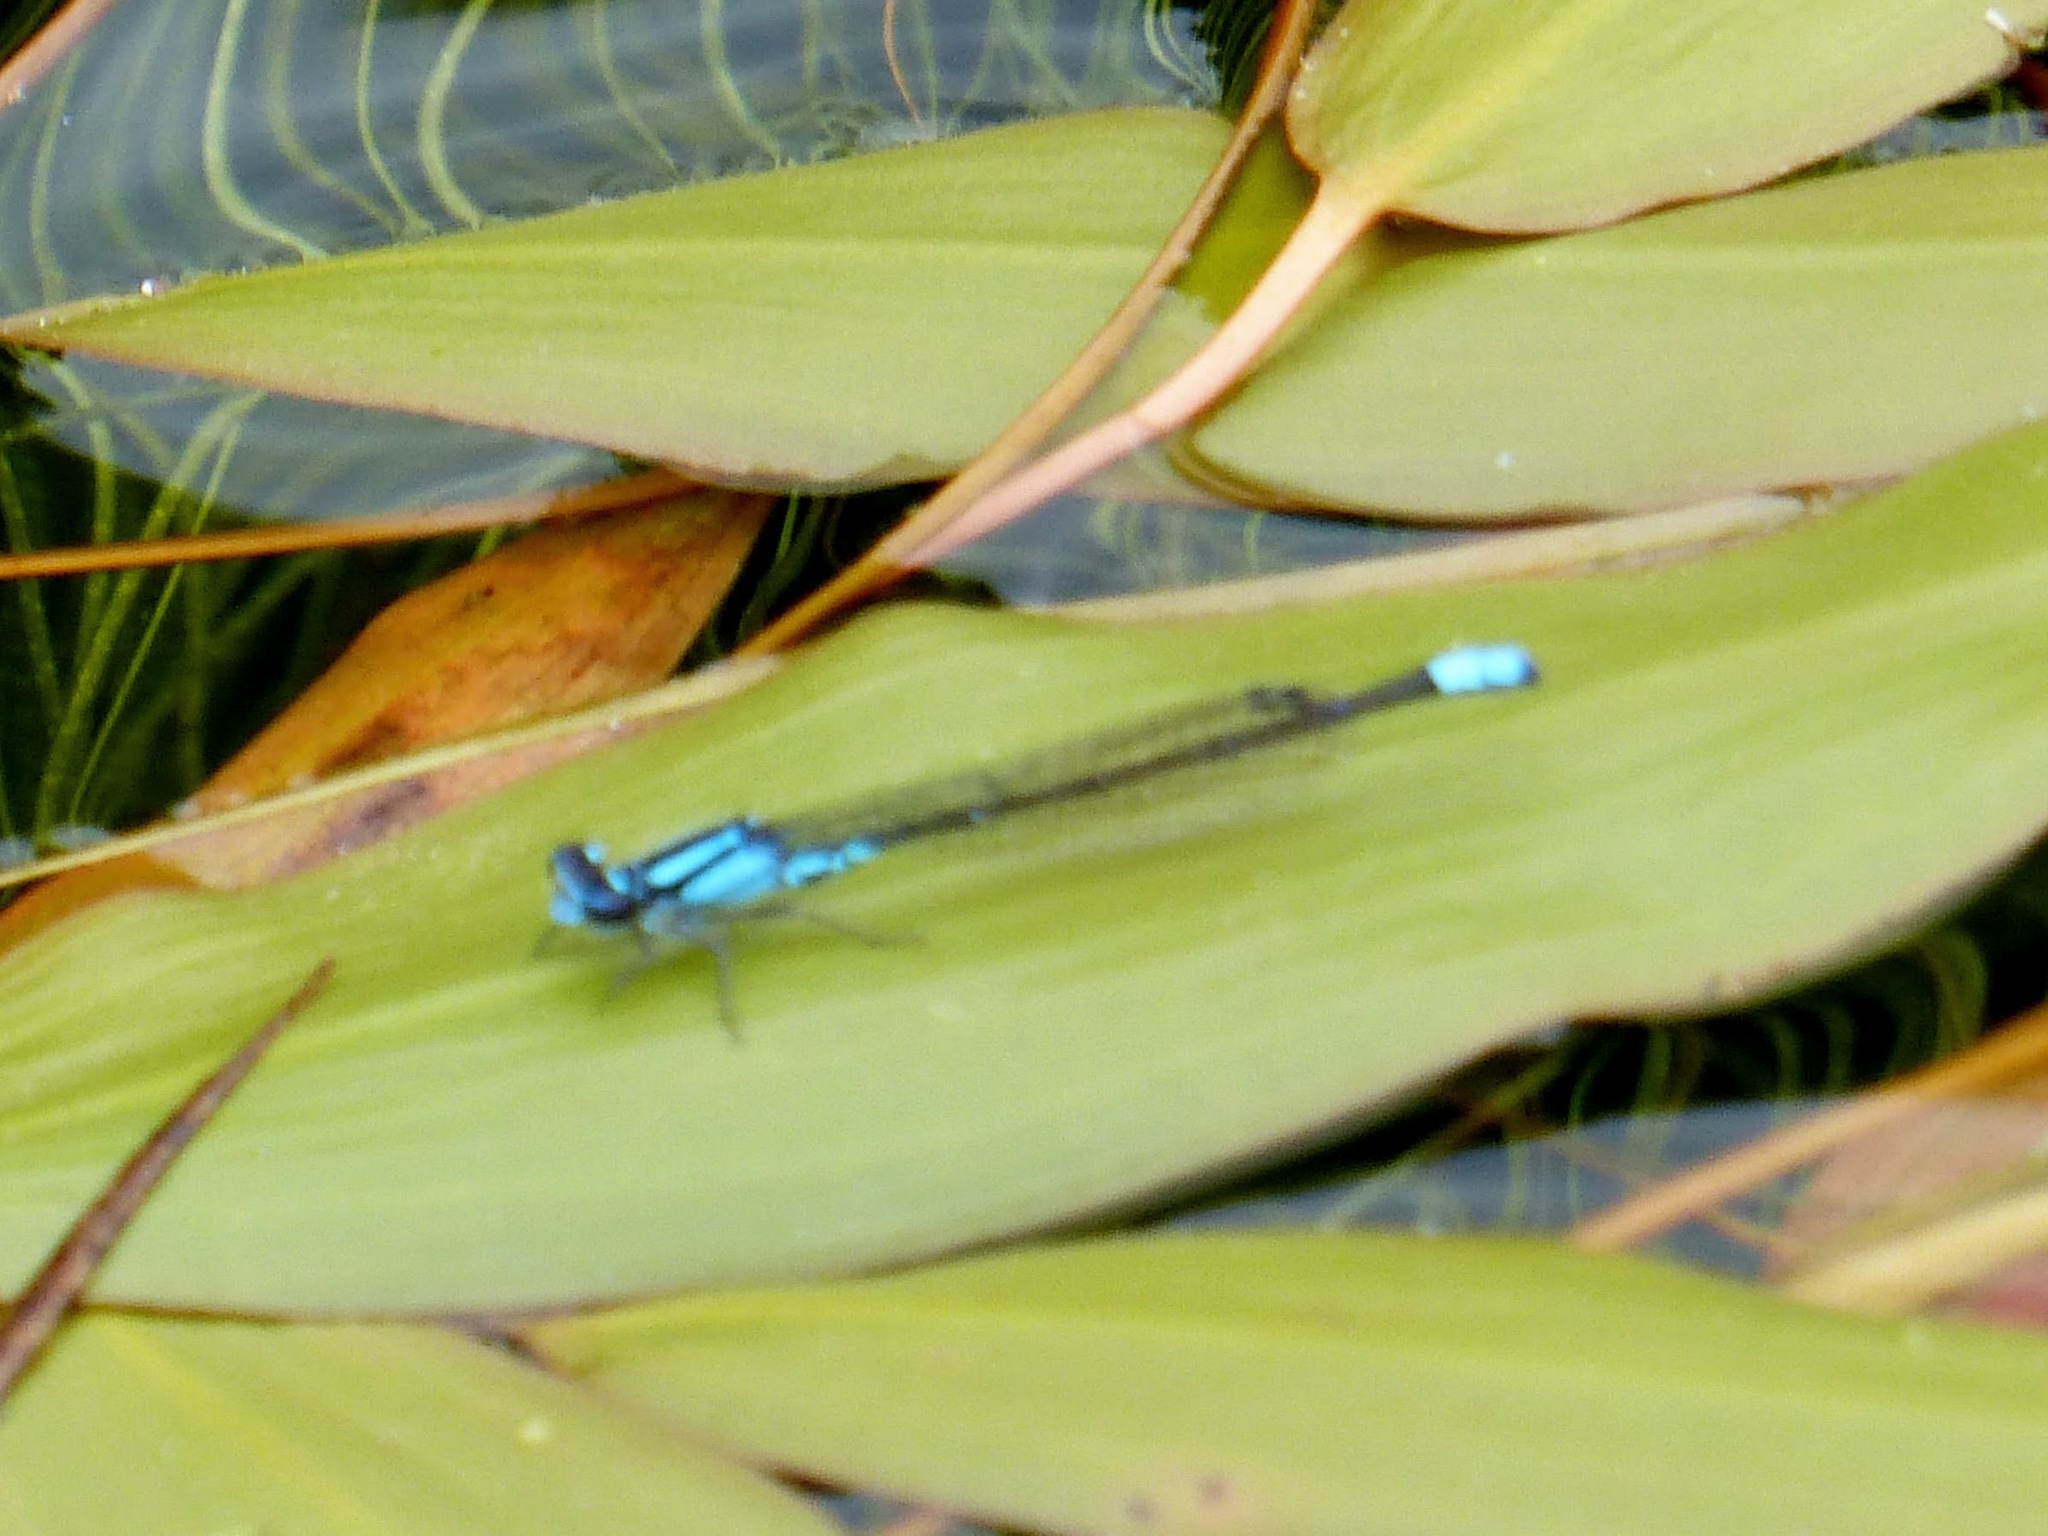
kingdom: Animalia
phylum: Arthropoda
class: Insecta
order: Odonata
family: Coenagrionidae
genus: Enallagma
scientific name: Enallagma geminatum
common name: Skimming bluet
